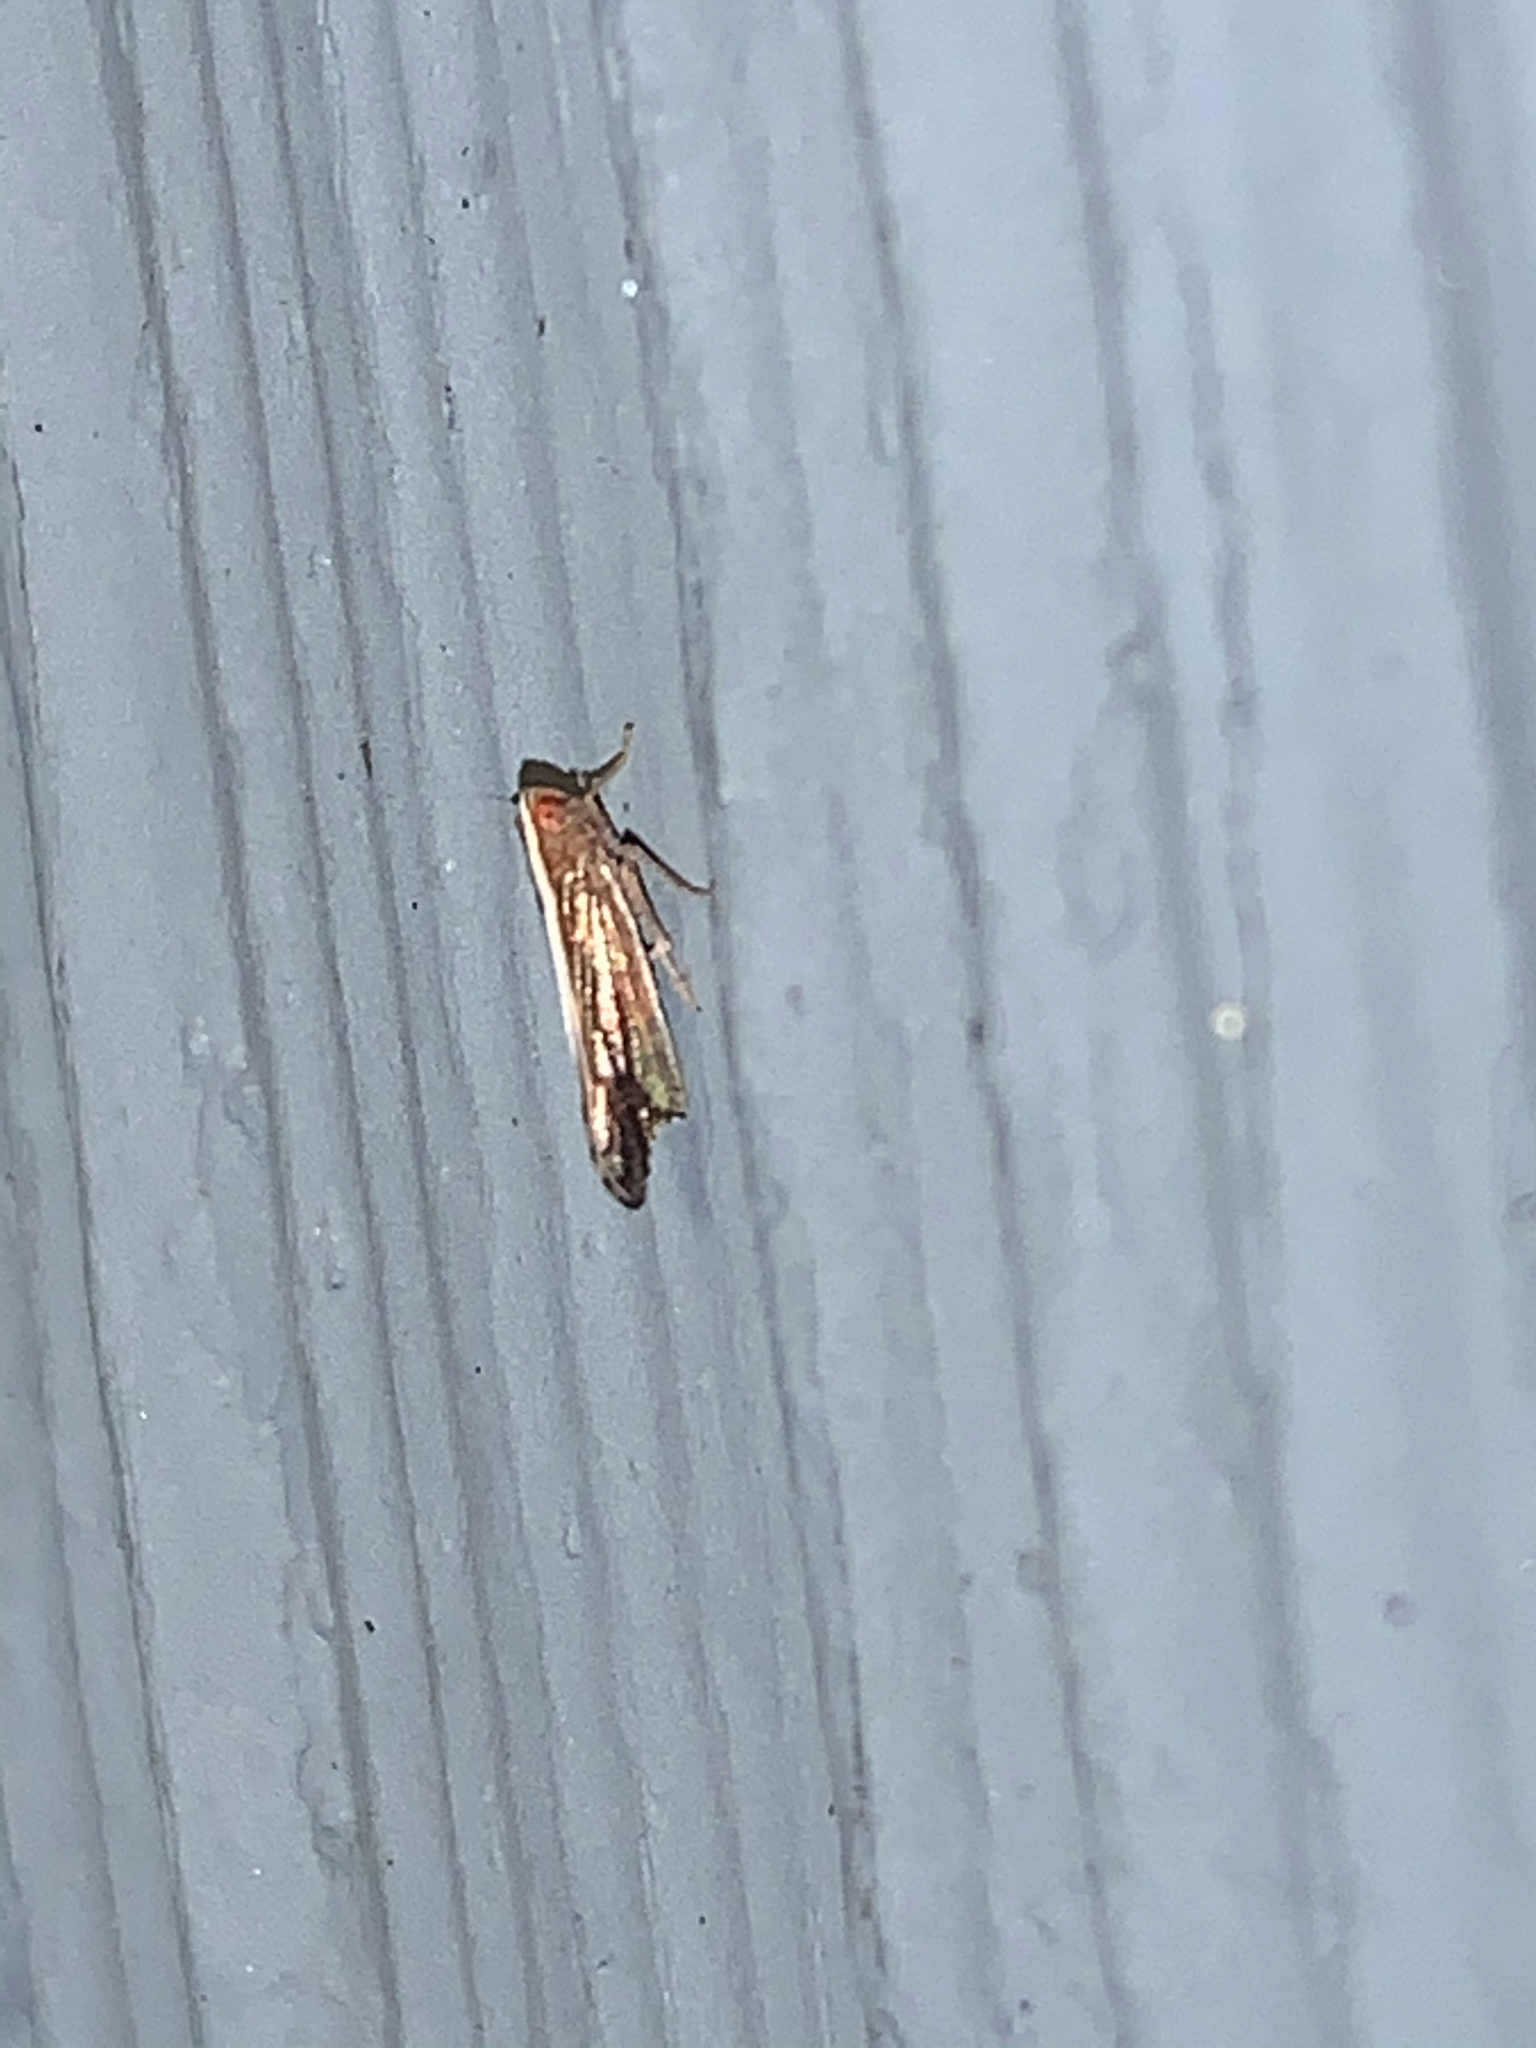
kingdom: Animalia
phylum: Arthropoda
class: Insecta
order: Hemiptera
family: Delphacidae
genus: Stenocranus
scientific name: Stenocranus
